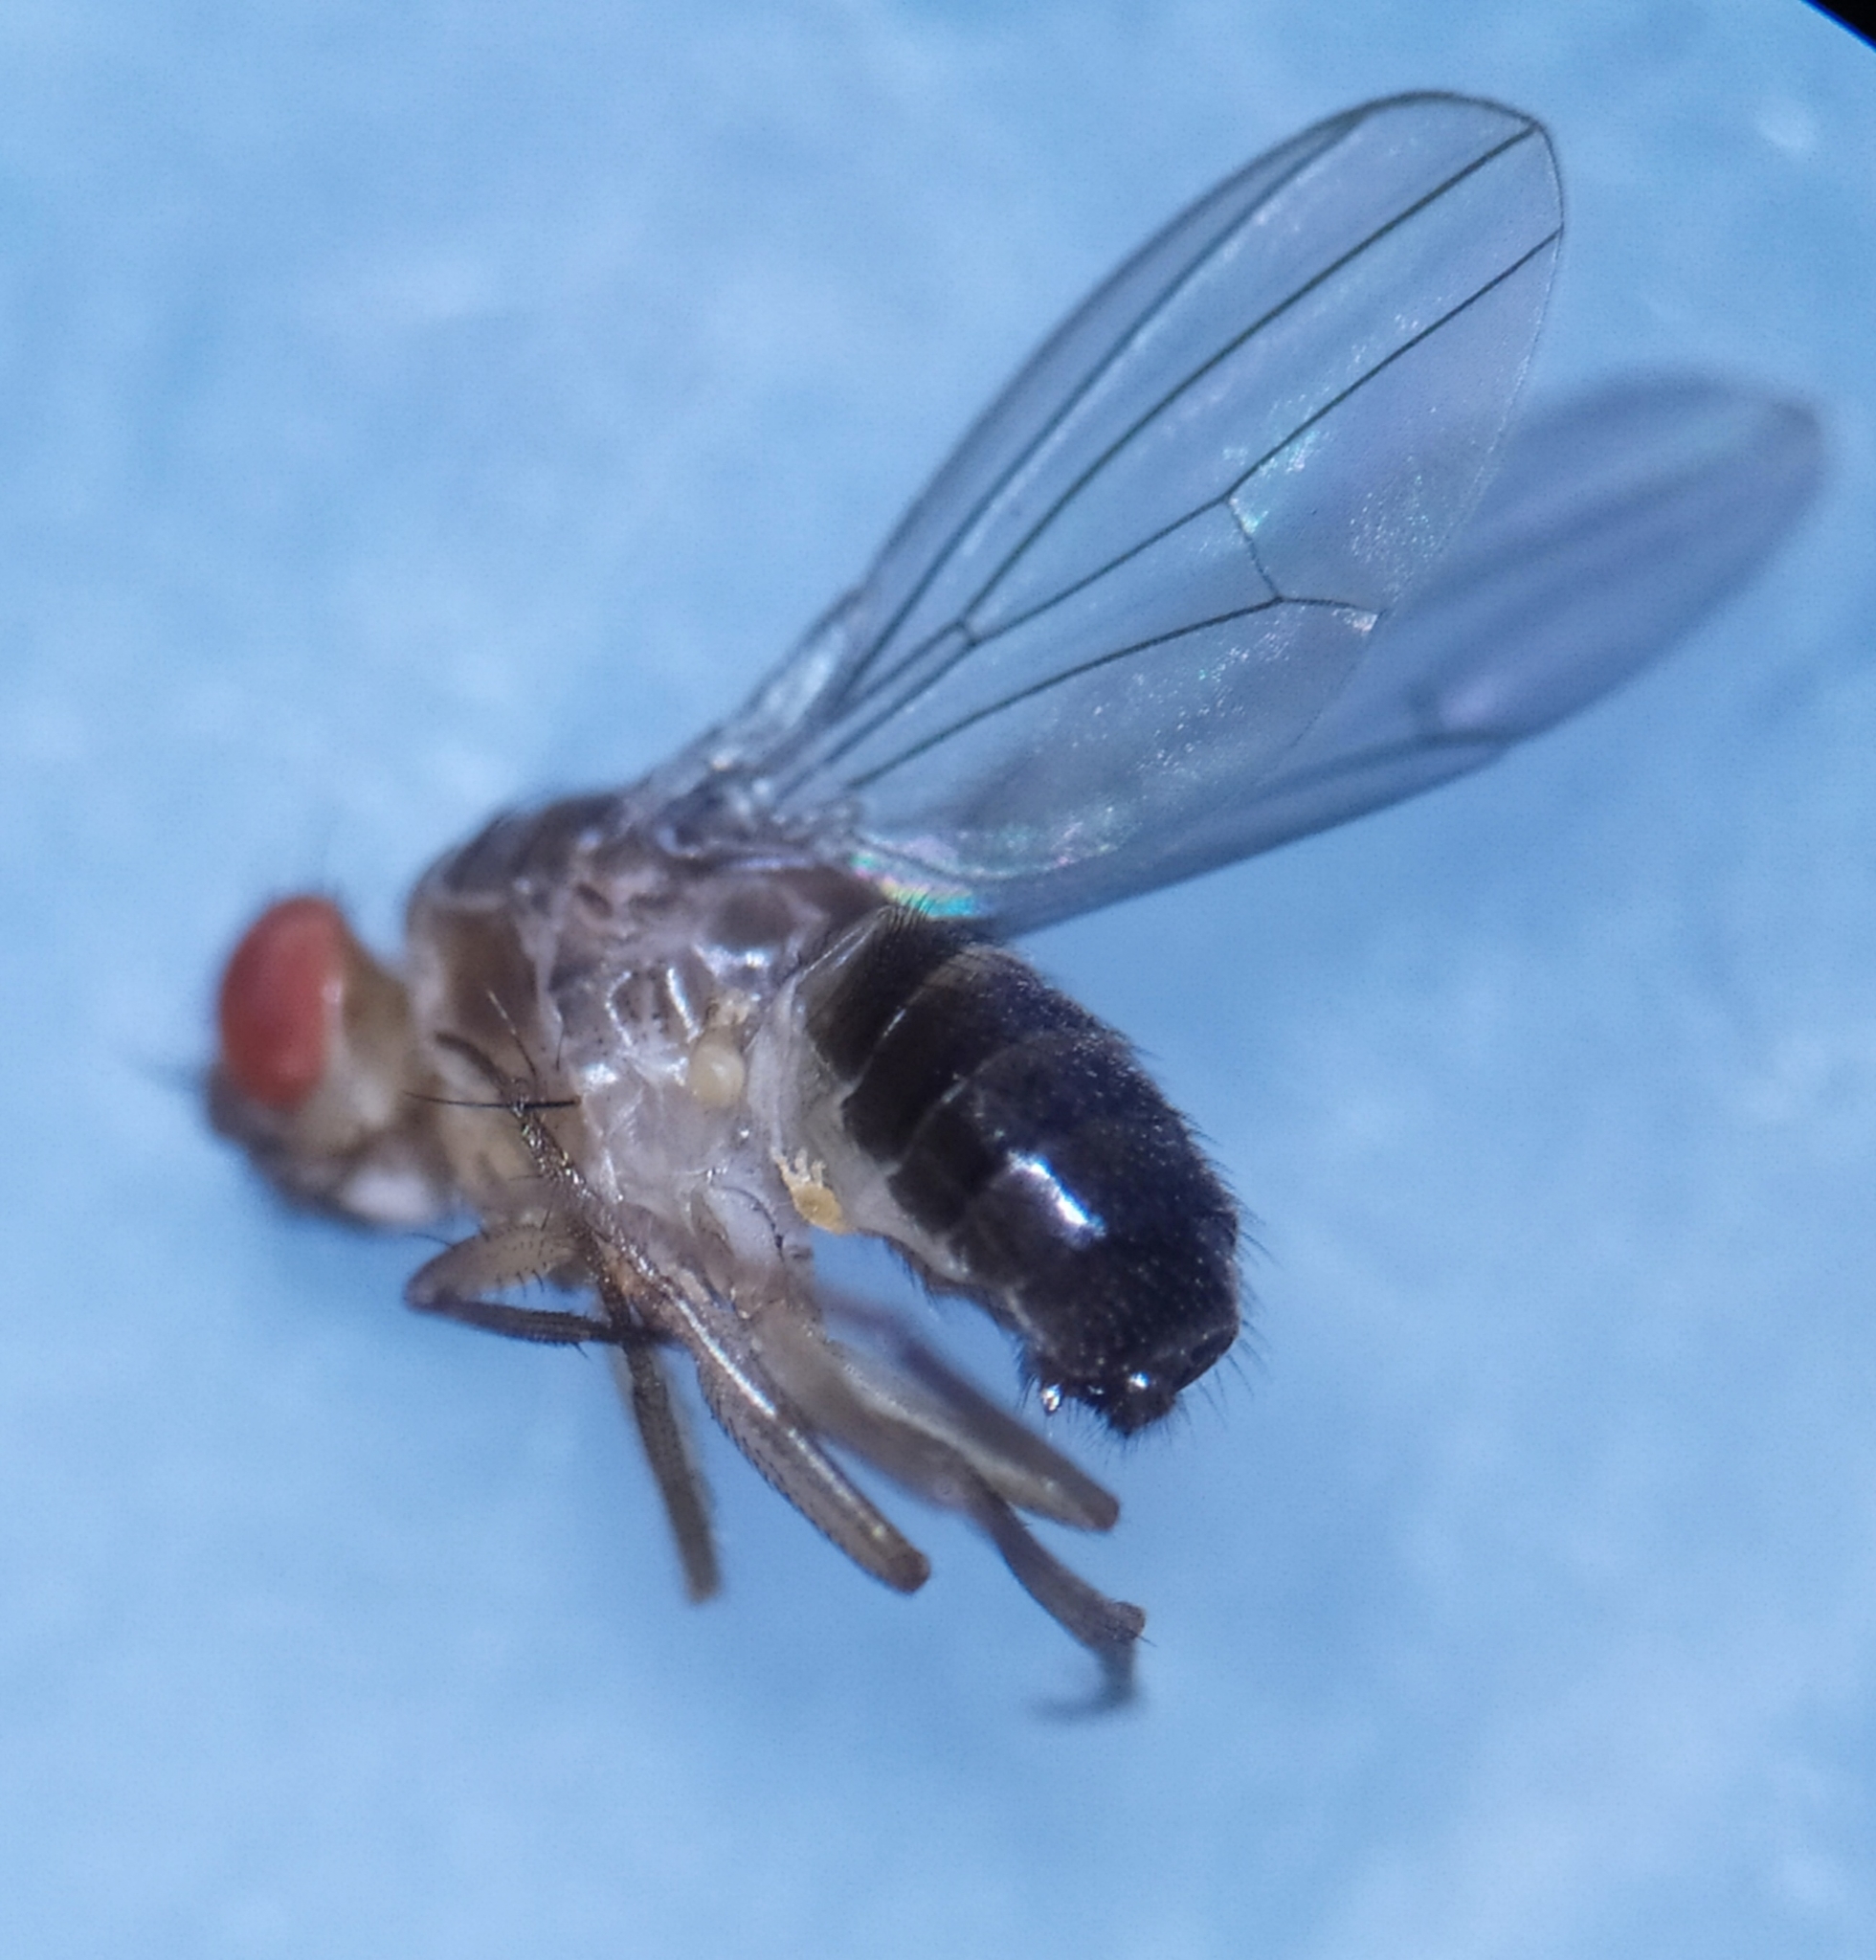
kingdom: Animalia
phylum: Arthropoda
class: Insecta
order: Diptera
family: Drosophilidae
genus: Drosophila
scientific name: Drosophila funebris
